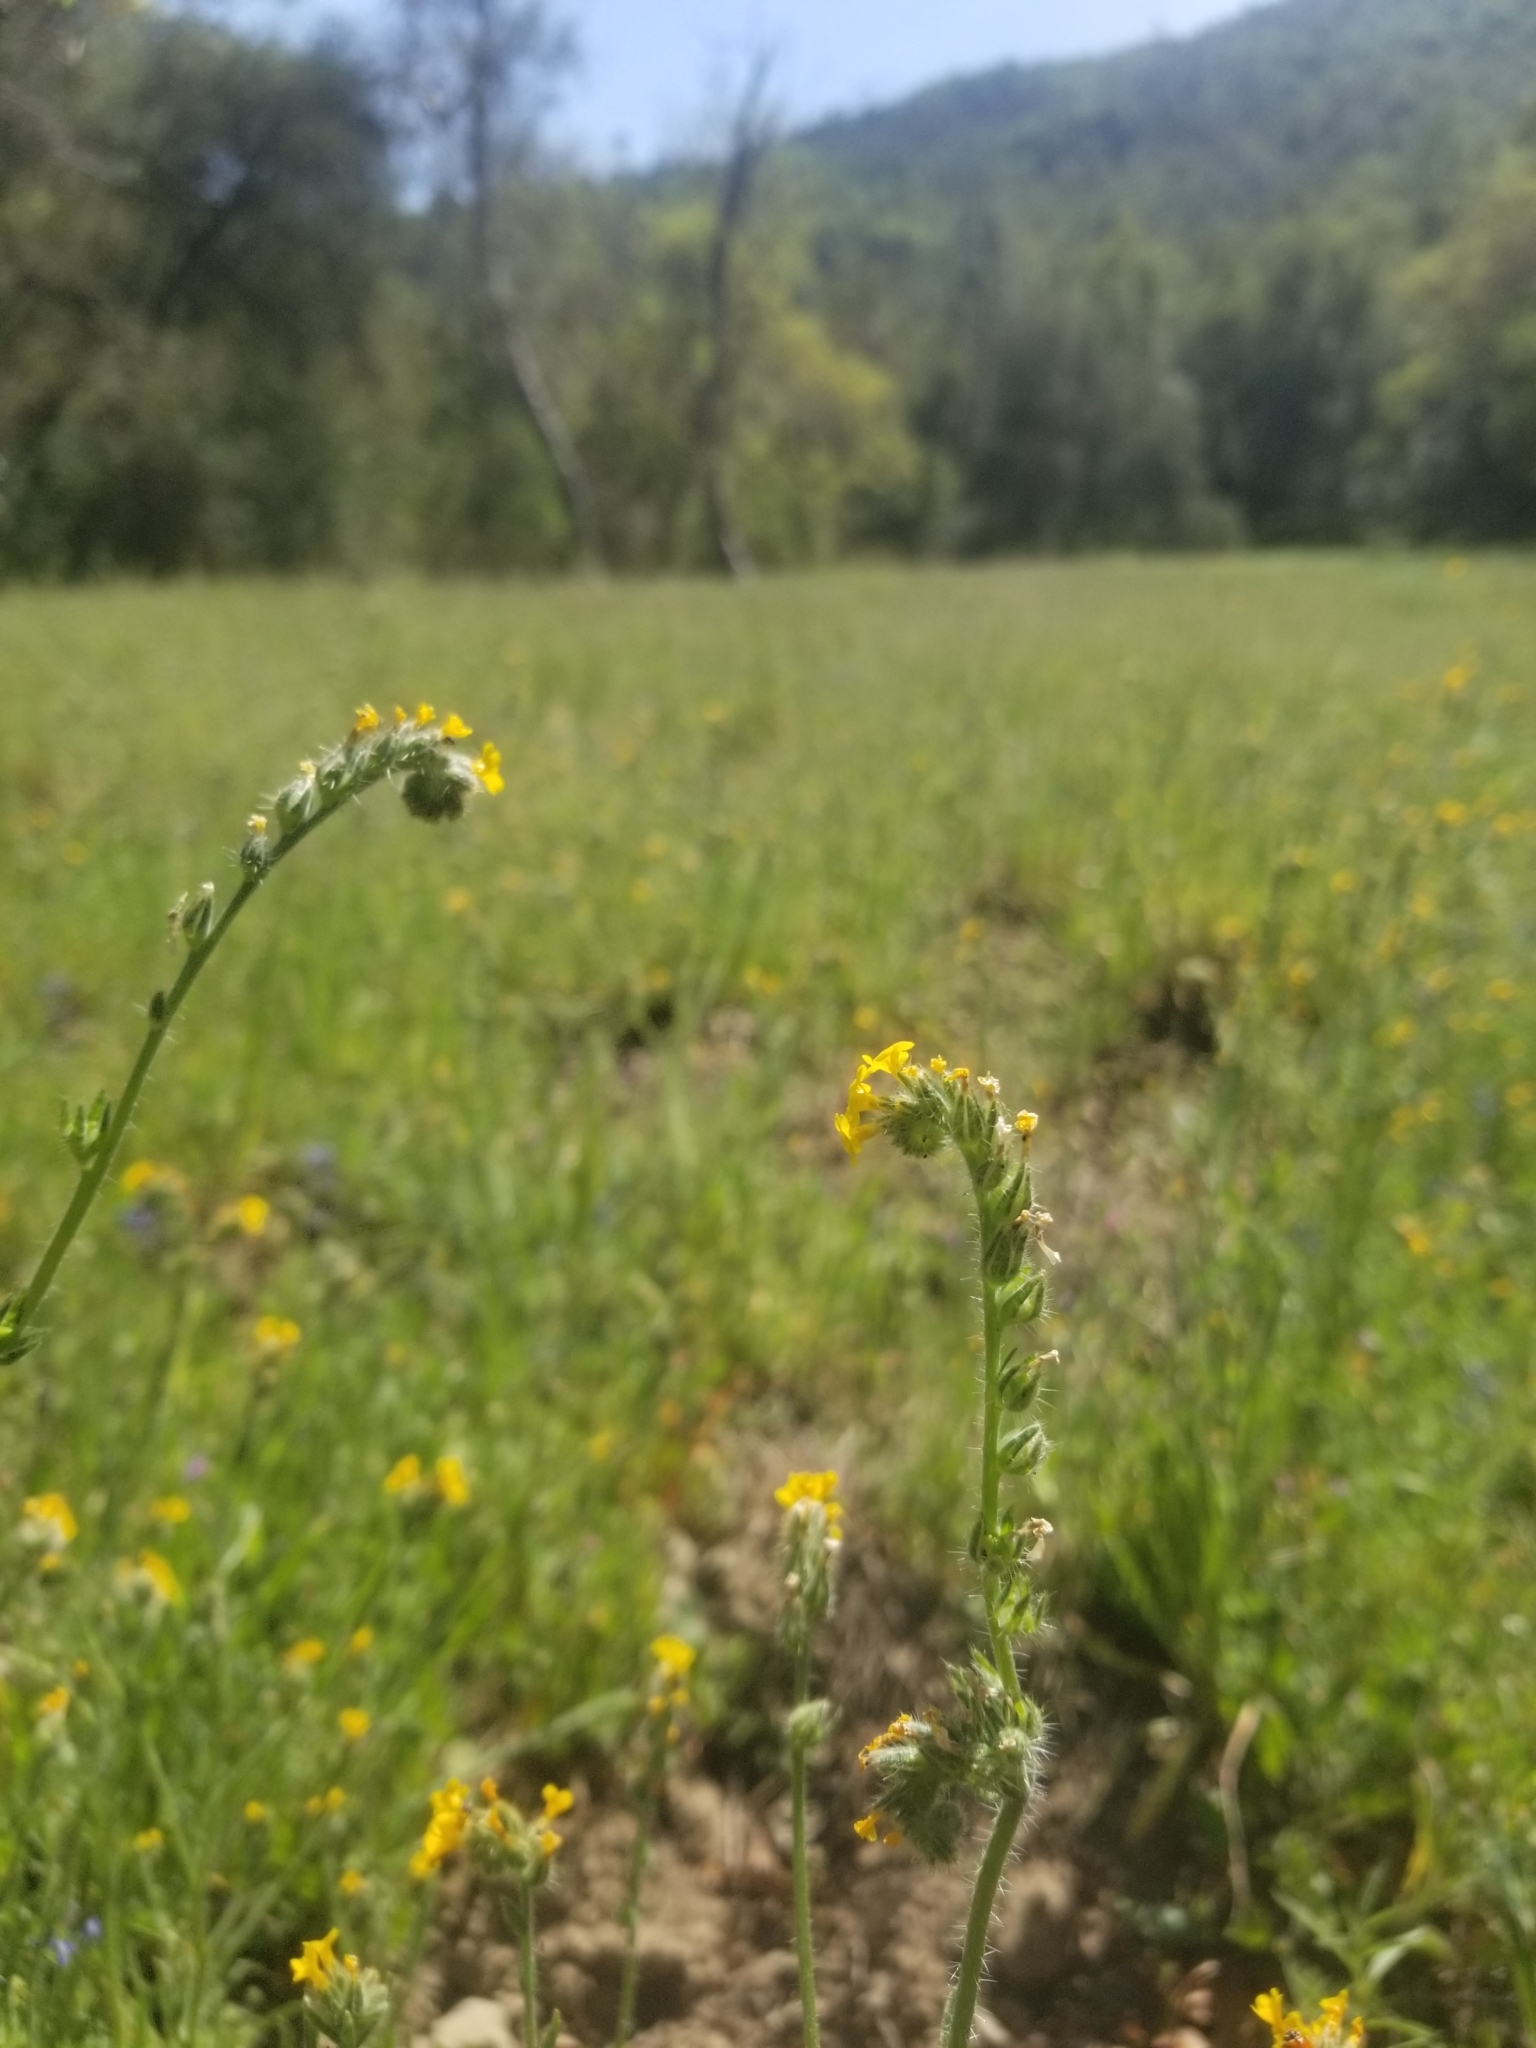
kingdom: Plantae
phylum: Tracheophyta
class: Magnoliopsida
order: Boraginales
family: Boraginaceae
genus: Amsinckia
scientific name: Amsinckia menziesii
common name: Menzies' fiddleneck
